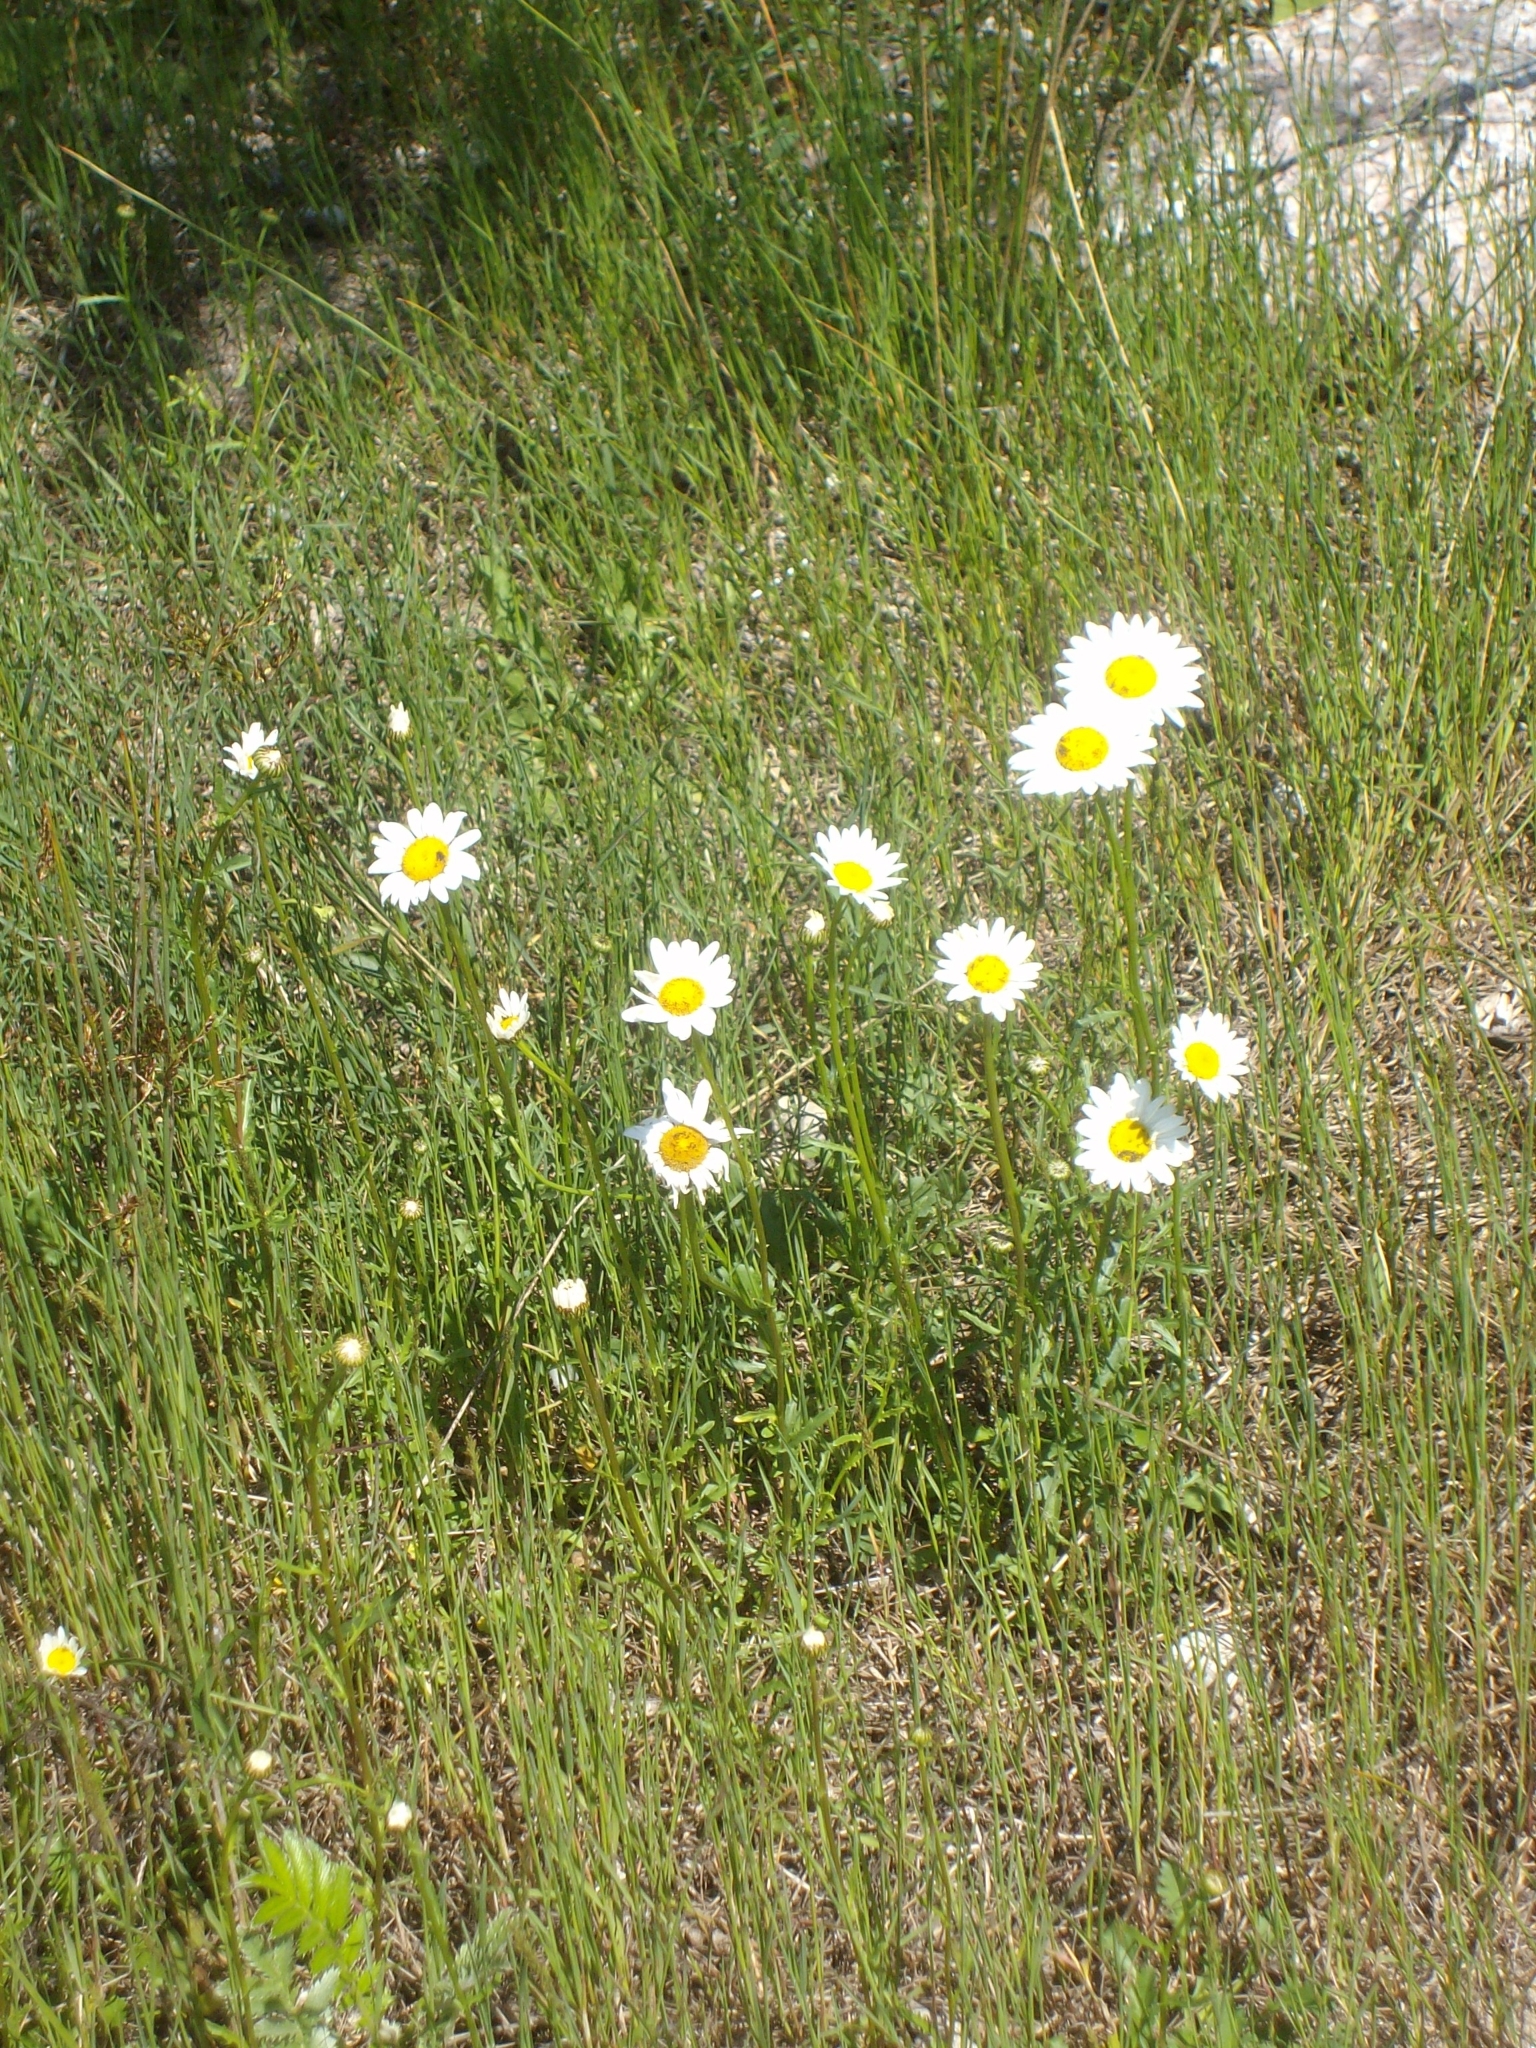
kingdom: Plantae
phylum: Tracheophyta
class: Magnoliopsida
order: Asterales
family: Asteraceae
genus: Leucanthemum
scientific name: Leucanthemum vulgare
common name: Oxeye daisy
